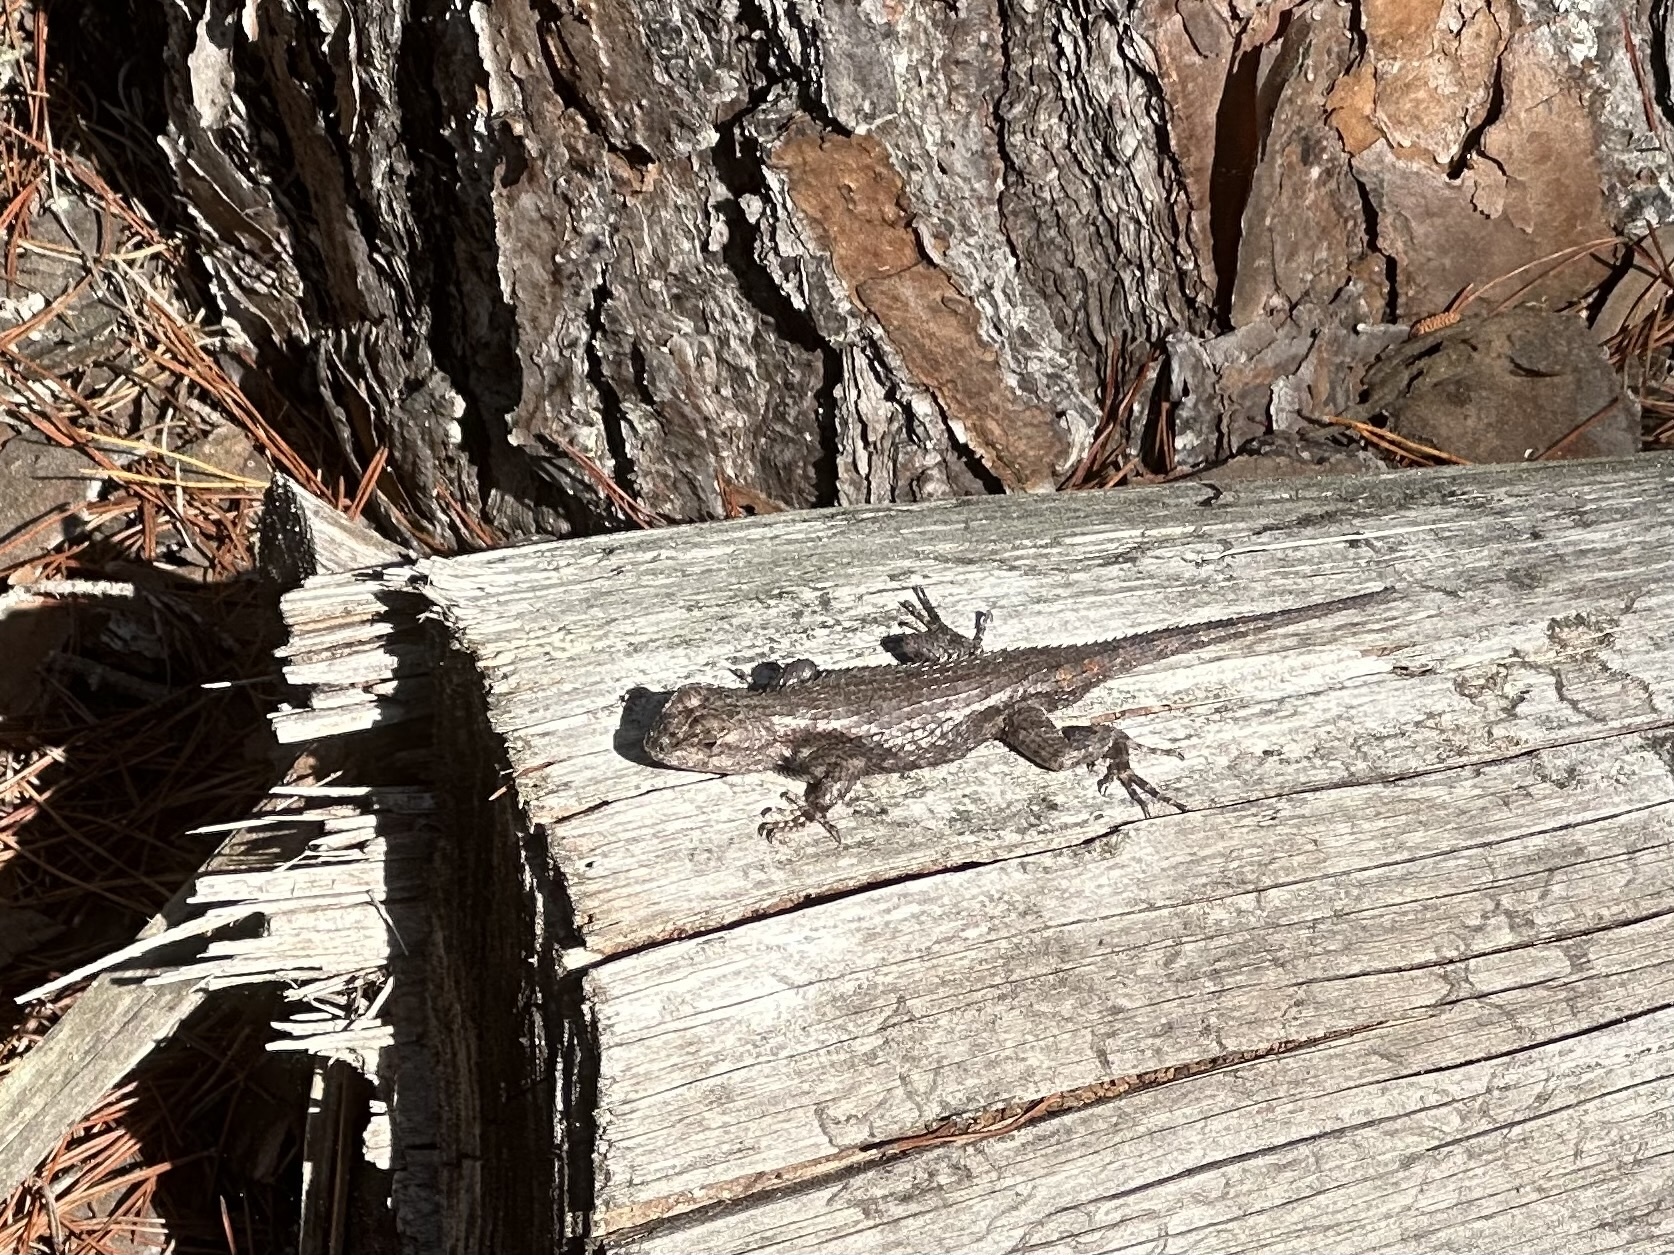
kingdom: Animalia
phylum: Chordata
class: Squamata
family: Phrynosomatidae
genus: Sceloporus
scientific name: Sceloporus undulatus
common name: Eastern fence lizard
